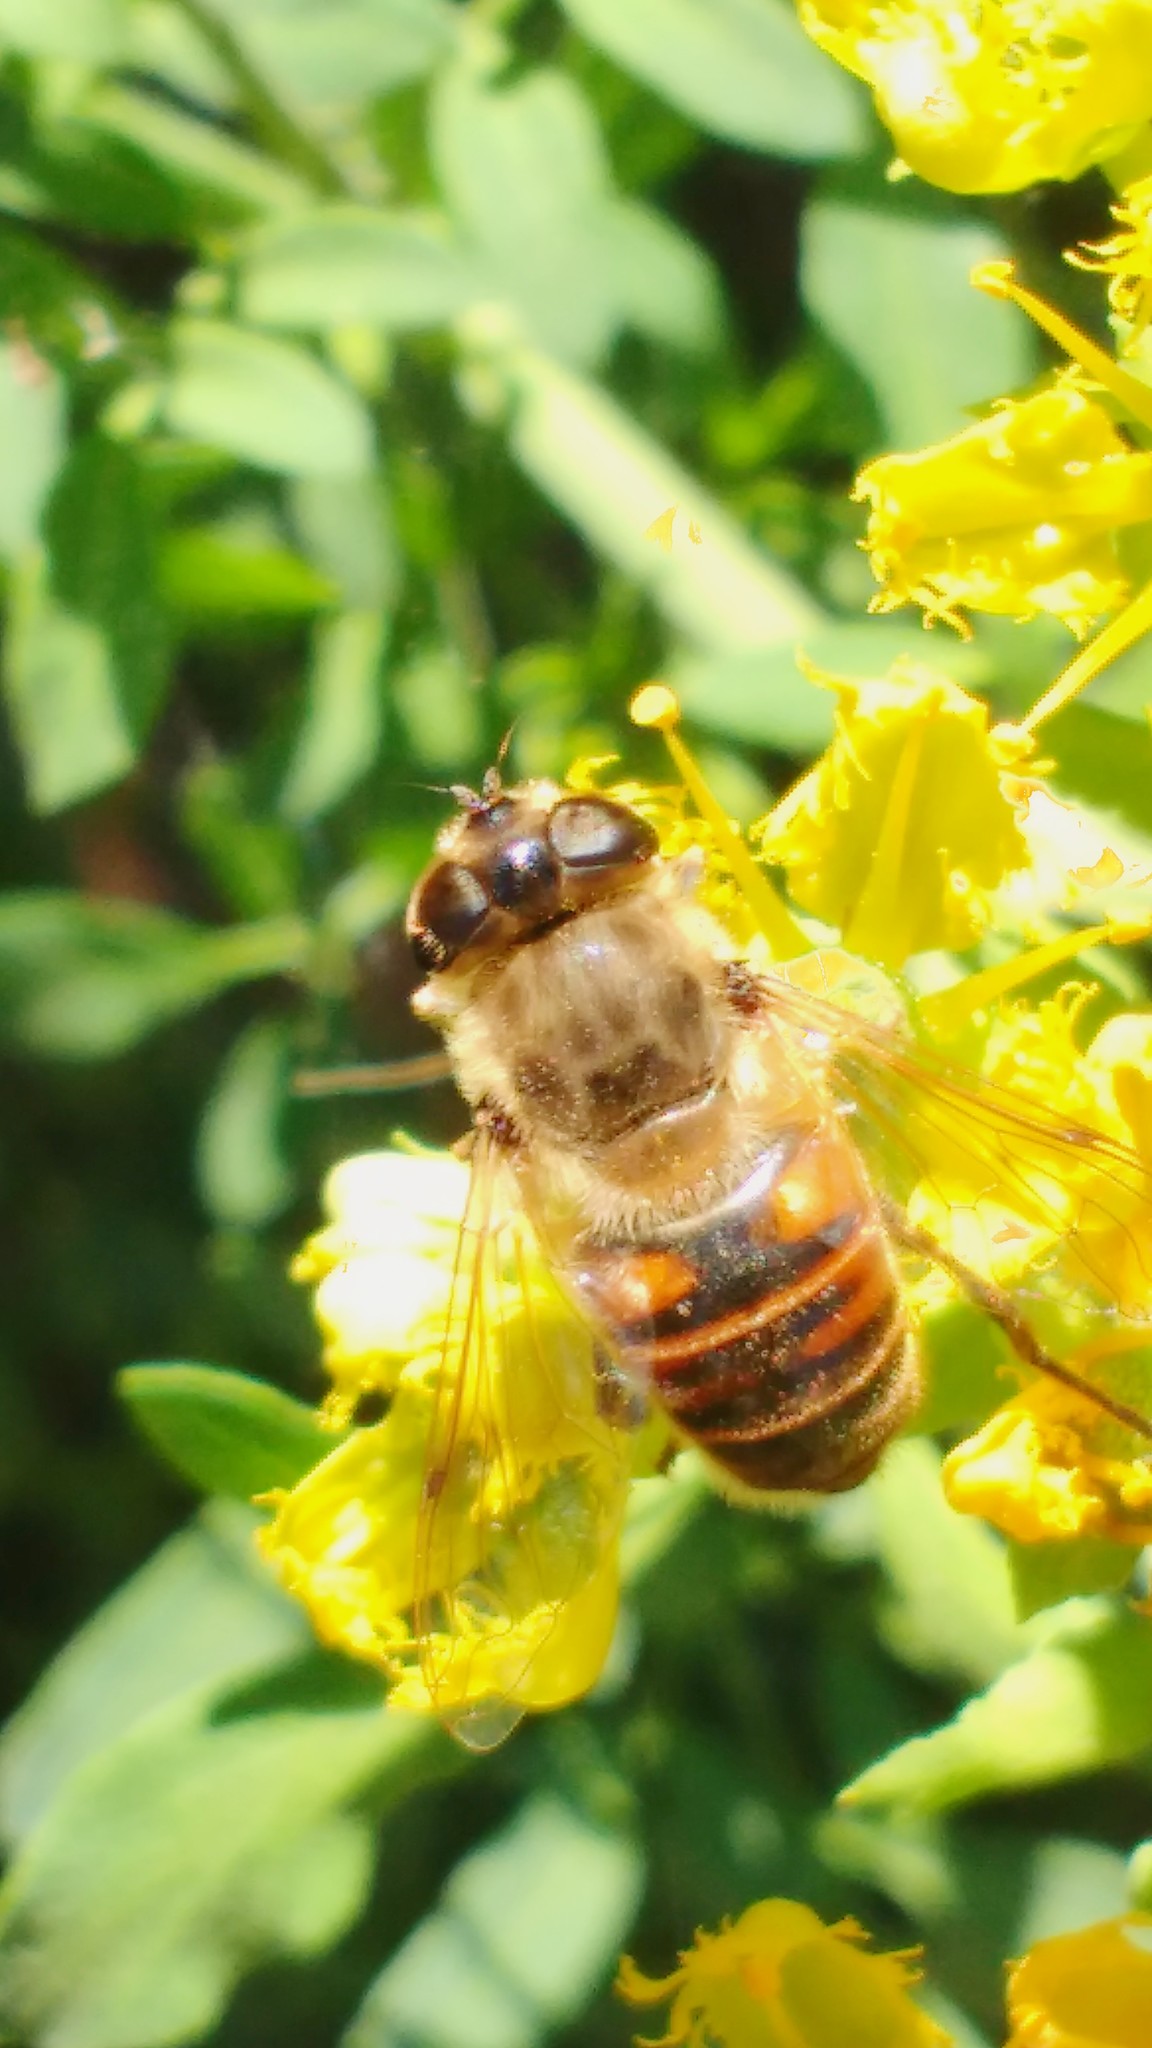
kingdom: Animalia
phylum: Arthropoda
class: Insecta
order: Diptera
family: Syrphidae
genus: Eristalis
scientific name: Eristalis tenax
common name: Drone fly
